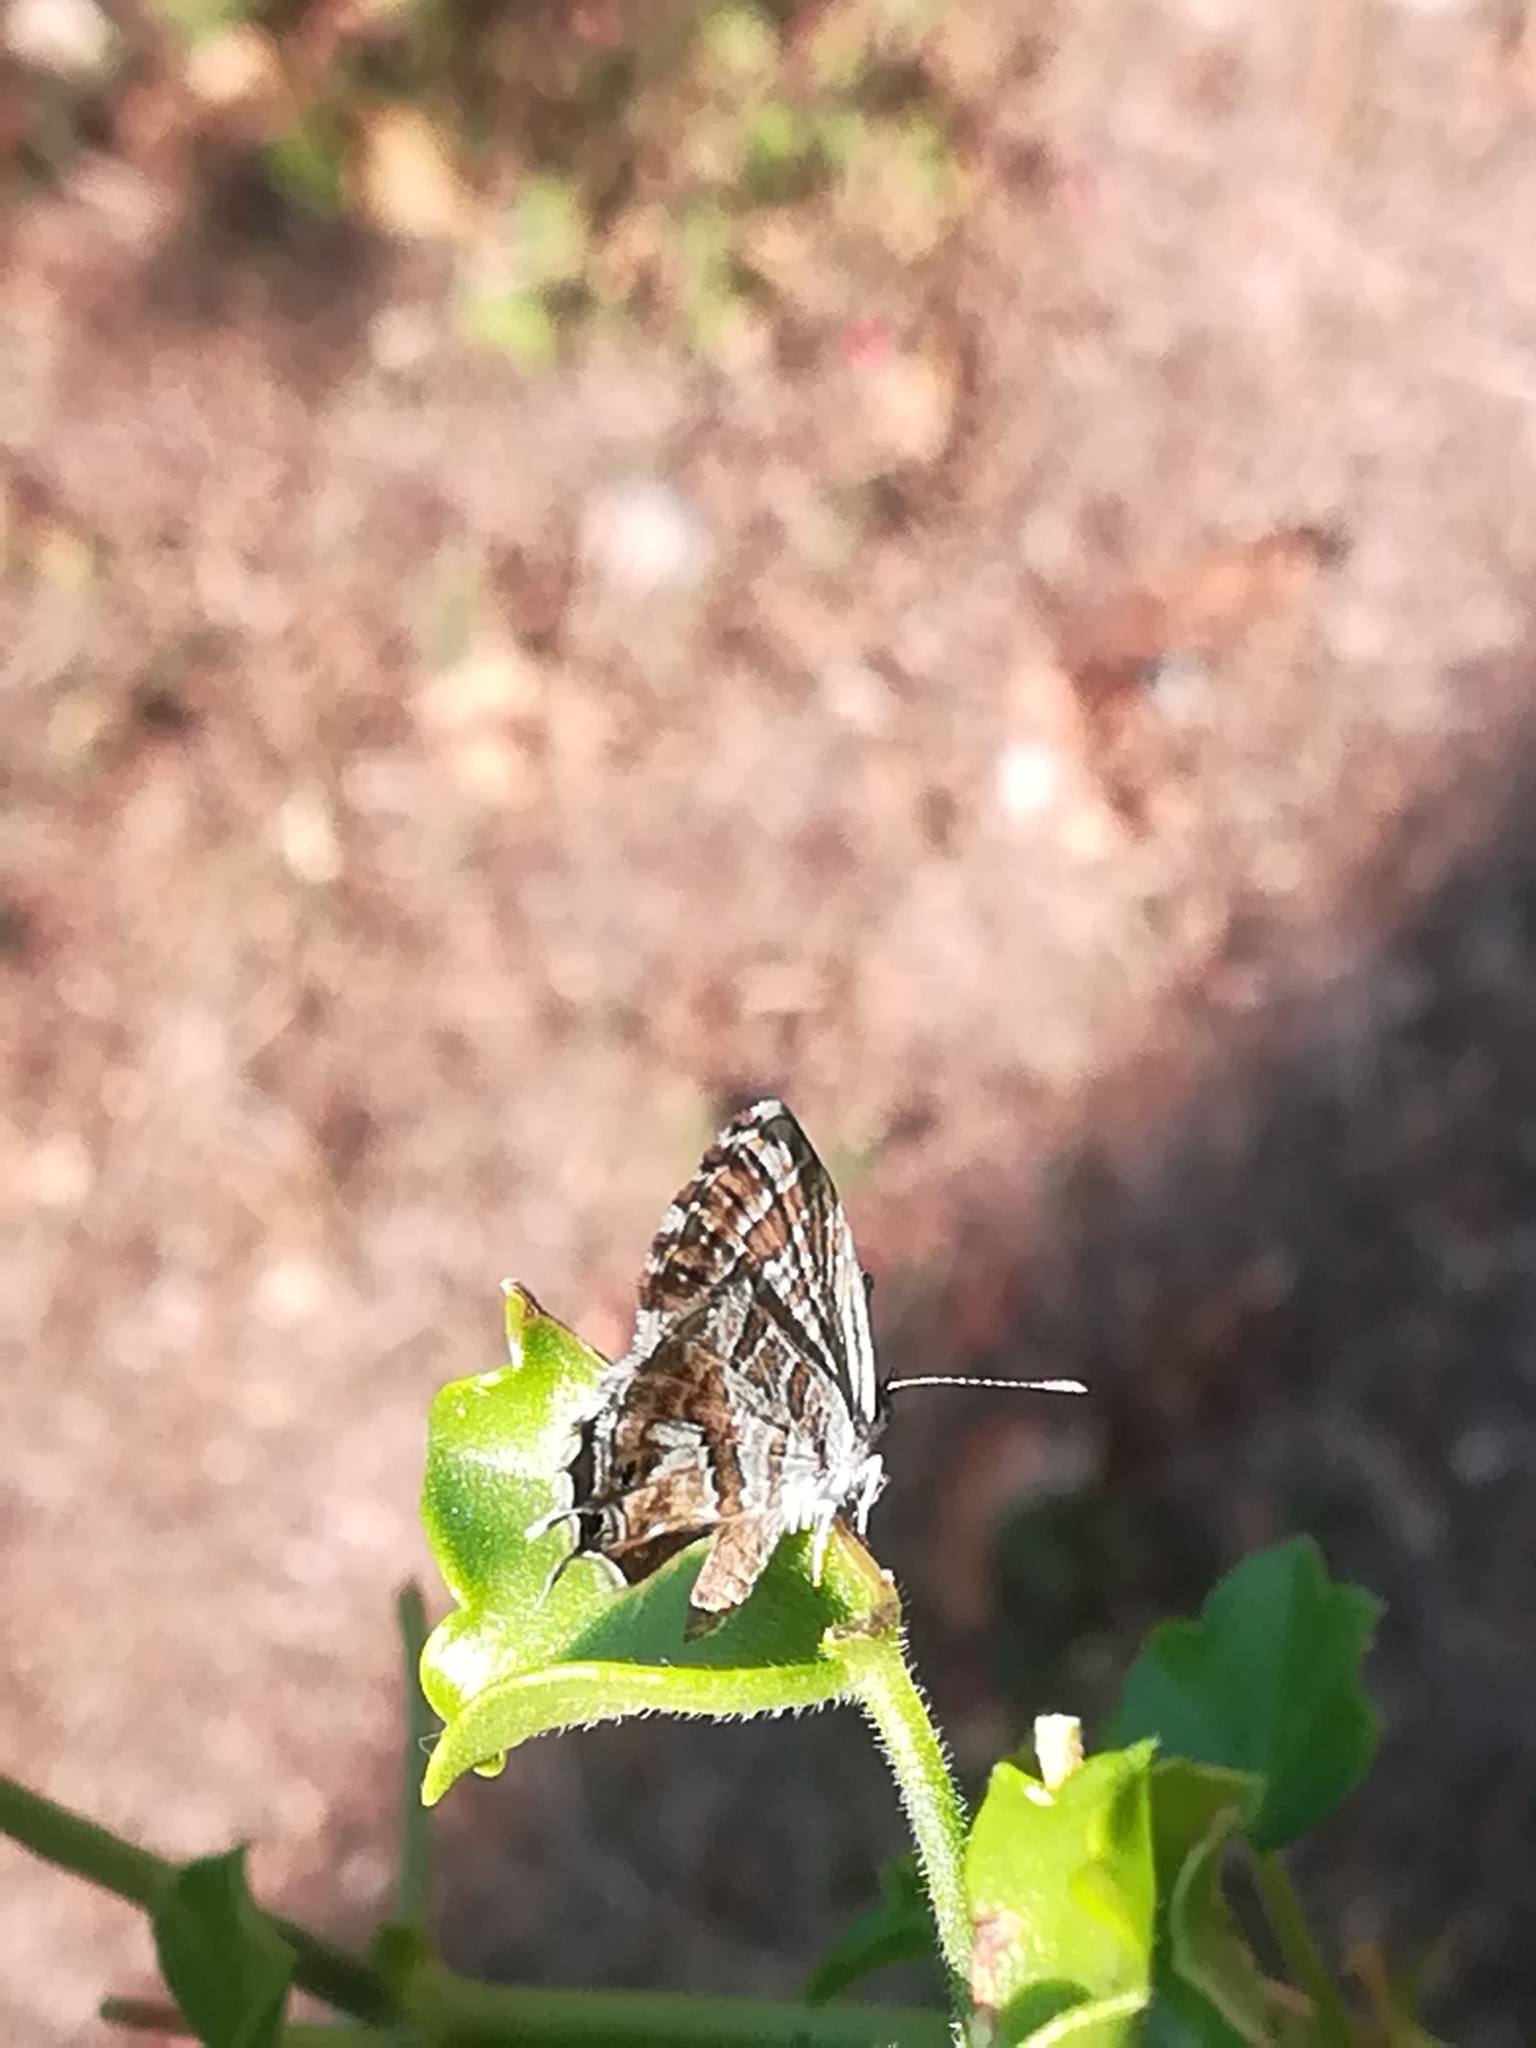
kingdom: Animalia
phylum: Arthropoda
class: Insecta
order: Lepidoptera
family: Lycaenidae
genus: Cacyreus
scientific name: Cacyreus marshalli
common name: Geranium bronze
